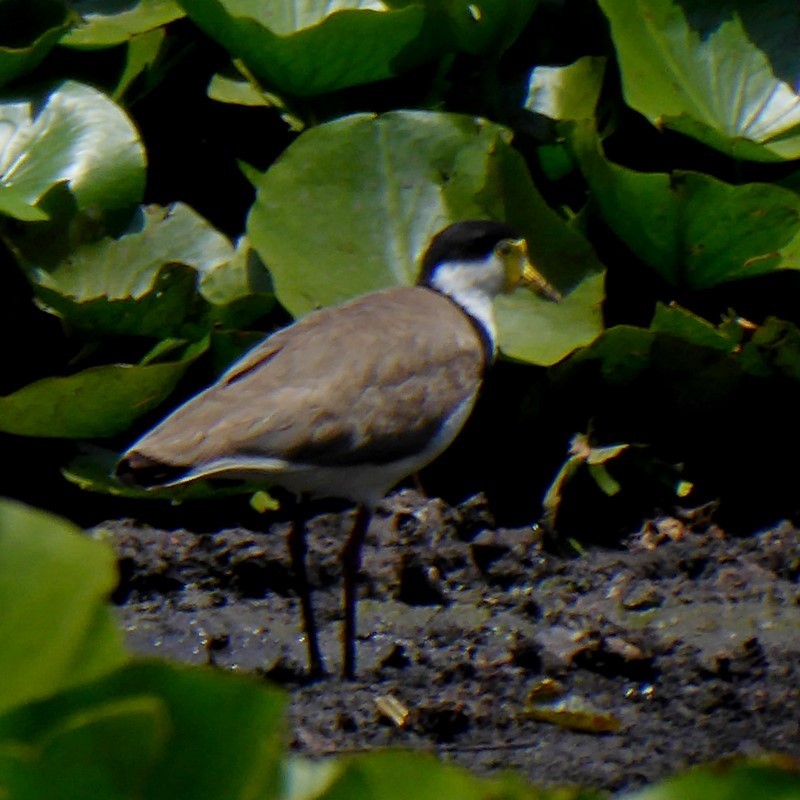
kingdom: Animalia
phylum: Chordata
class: Aves
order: Charadriiformes
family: Charadriidae
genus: Vanellus
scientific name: Vanellus miles
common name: Masked lapwing
